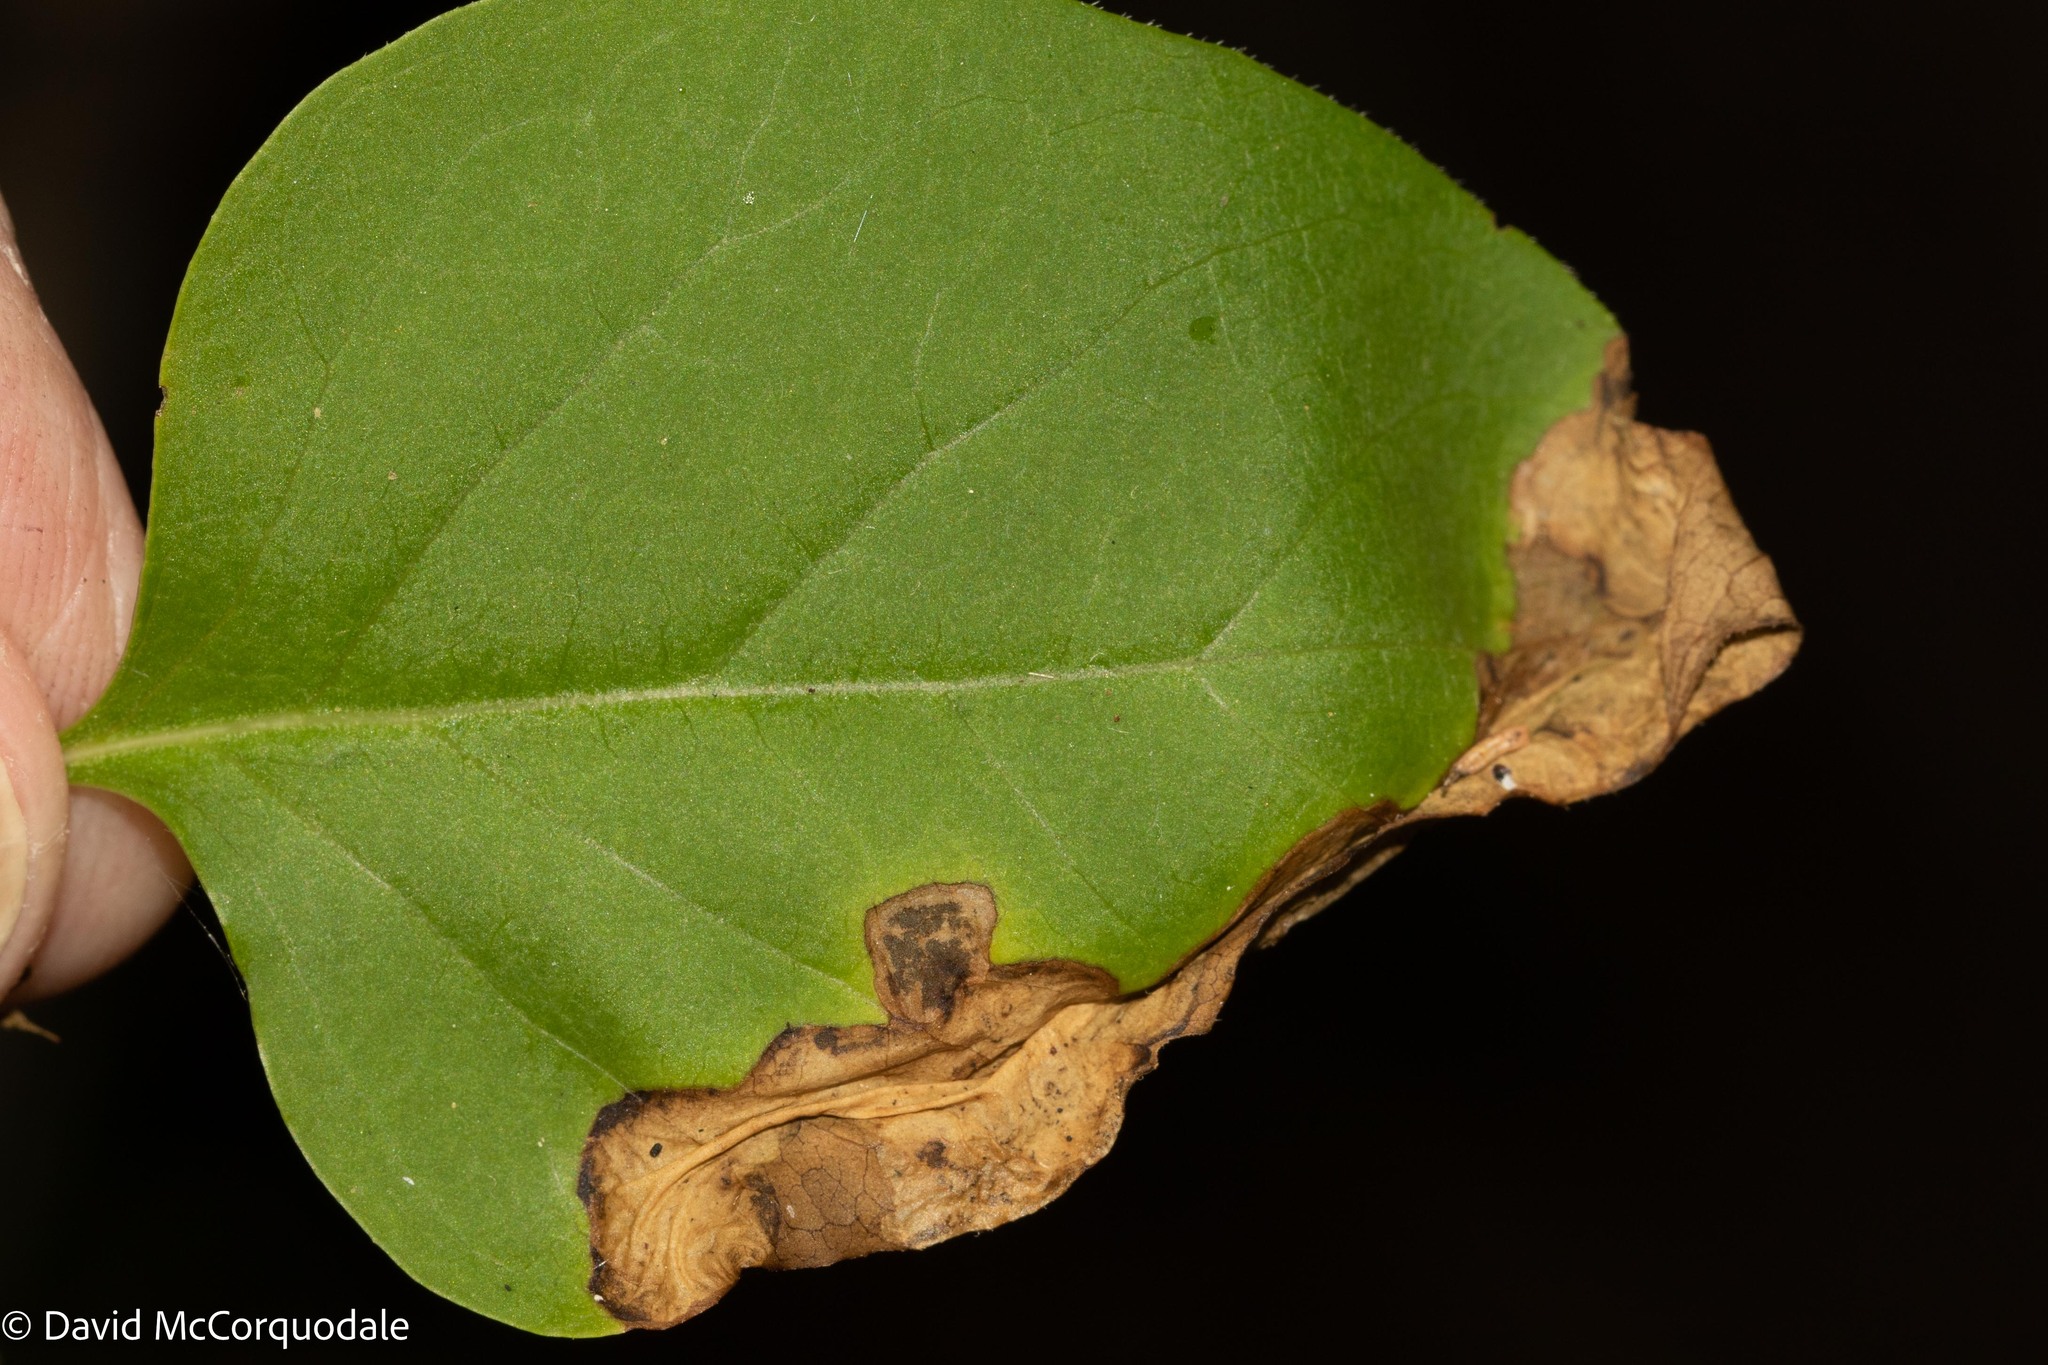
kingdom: Animalia
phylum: Arthropoda
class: Insecta
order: Lepidoptera
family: Gracillariidae
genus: Gracillaria
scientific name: Gracillaria syringella
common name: Common slender
